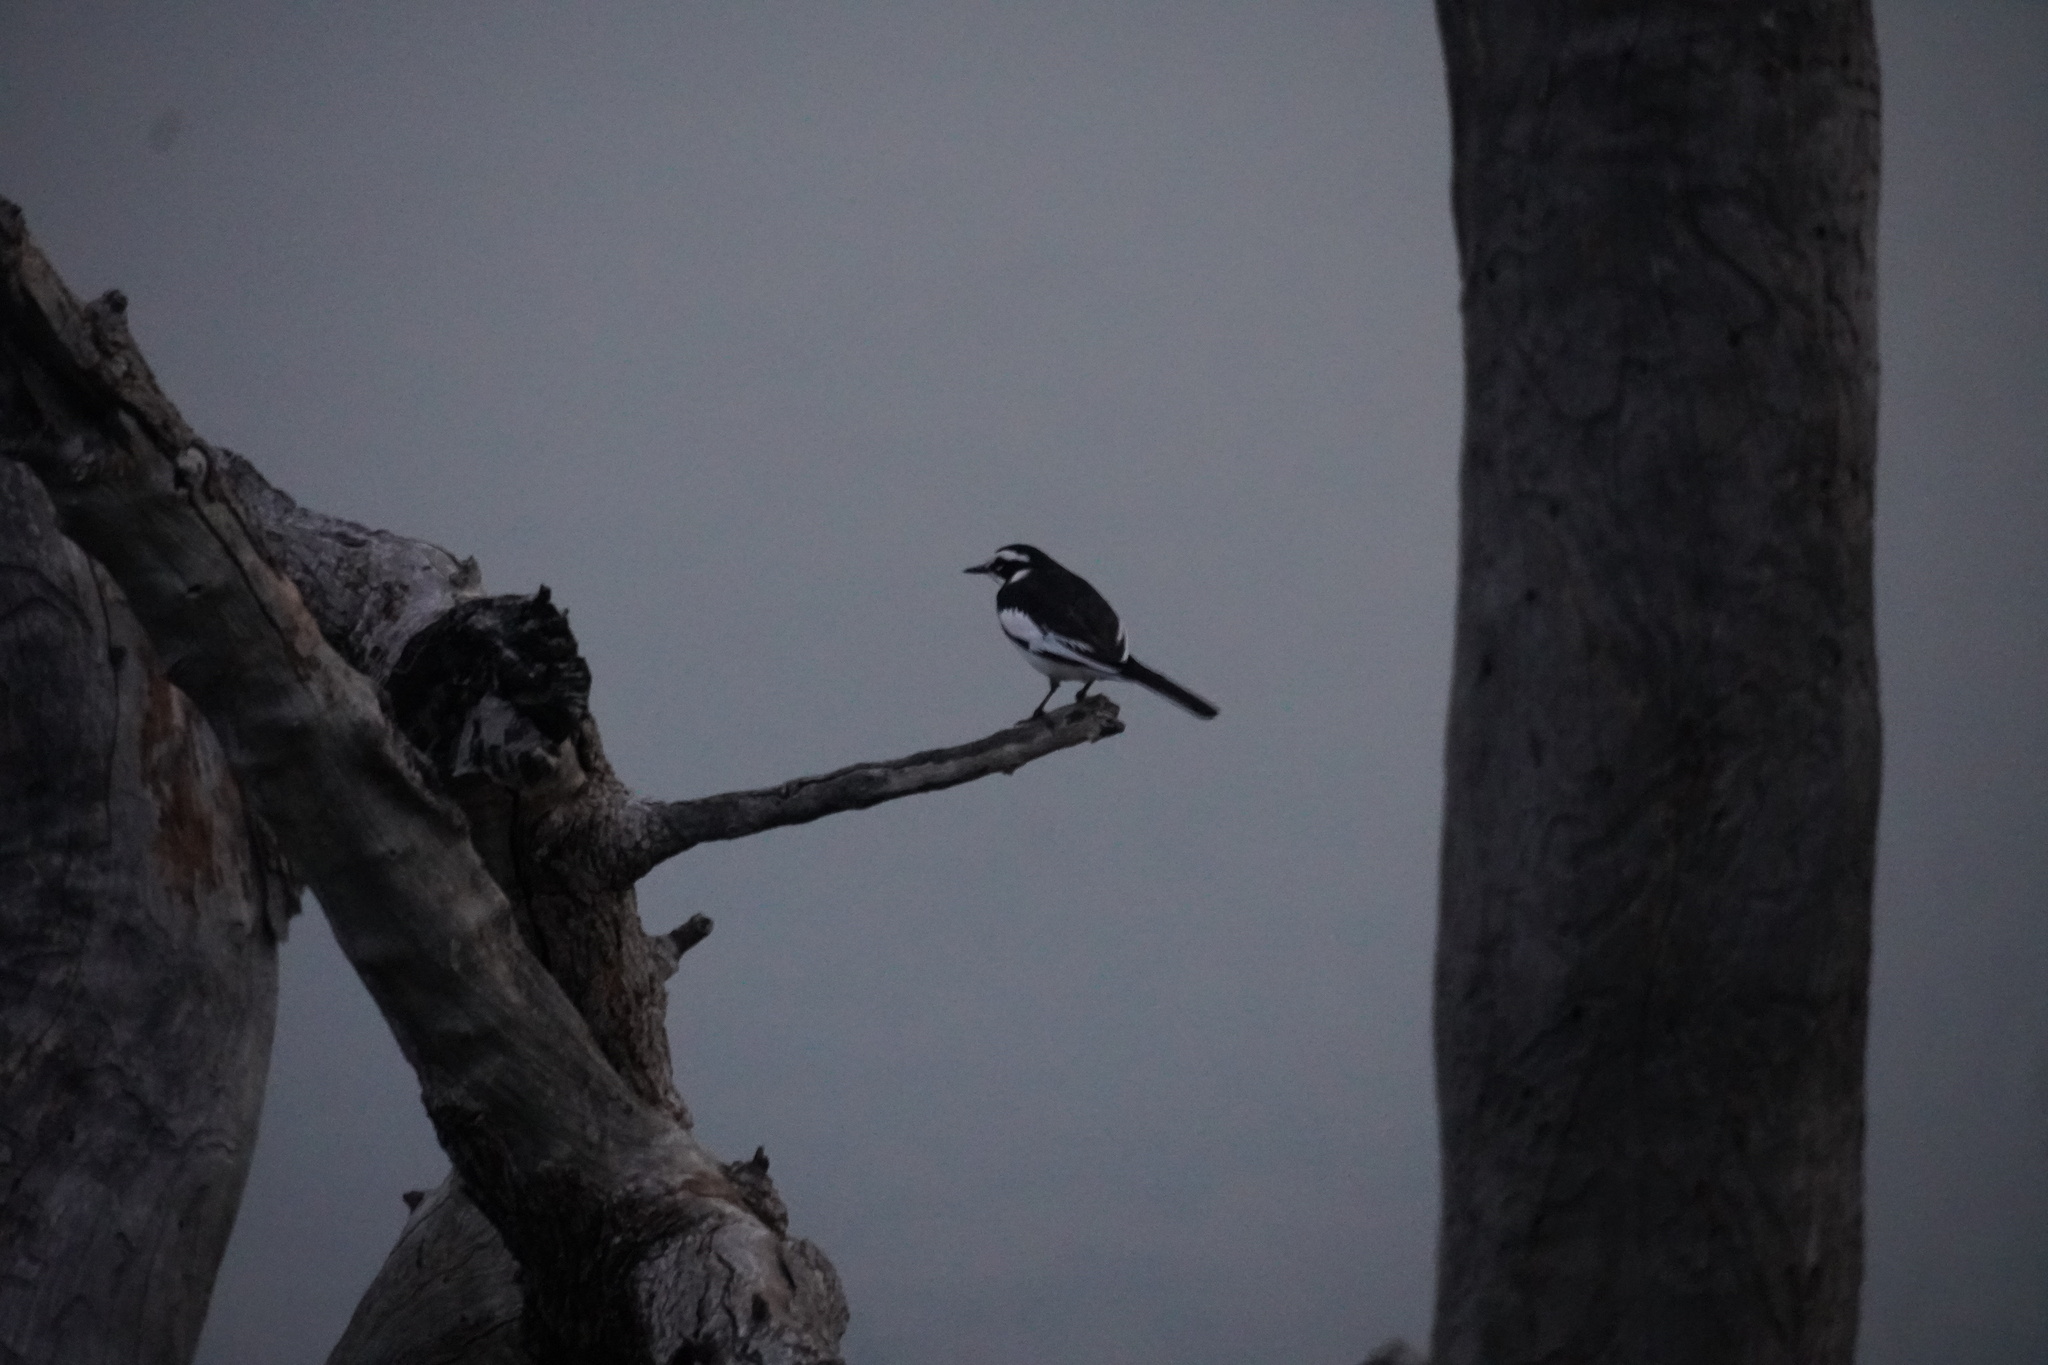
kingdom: Animalia
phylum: Chordata
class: Aves
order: Passeriformes
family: Motacillidae
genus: Motacilla
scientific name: Motacilla aguimp
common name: African pied wagtail
